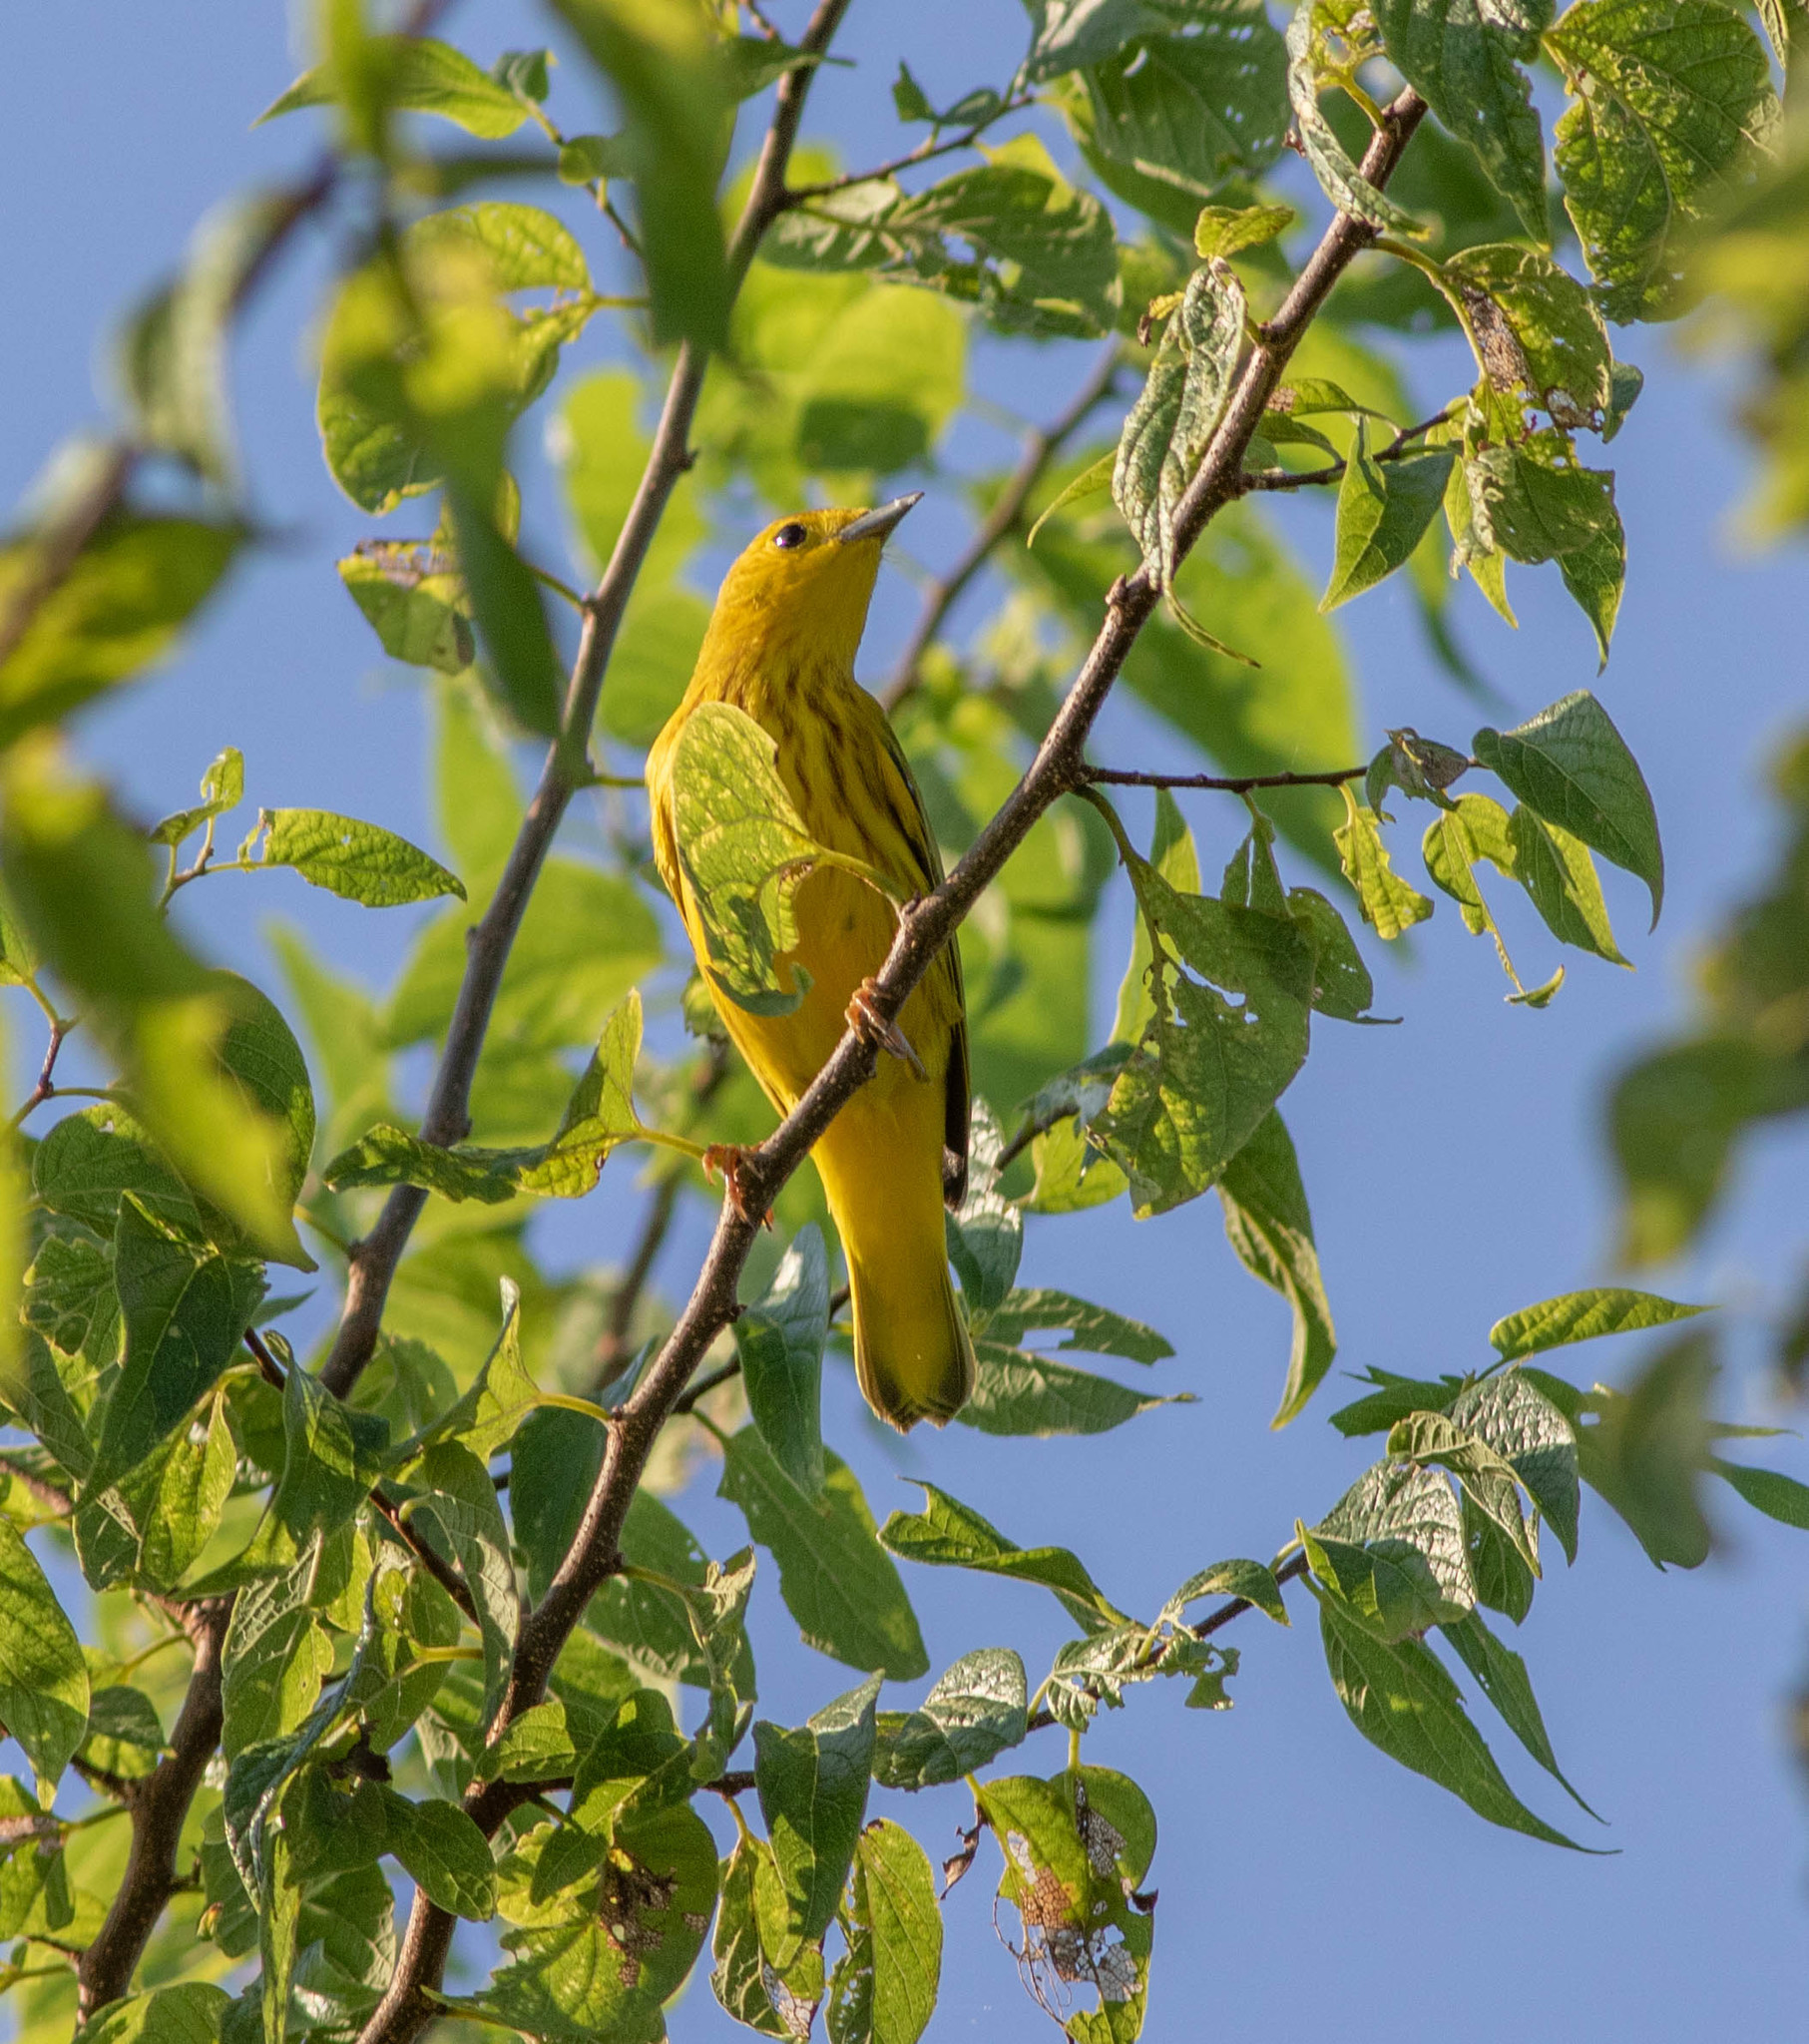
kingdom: Animalia
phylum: Chordata
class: Aves
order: Passeriformes
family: Parulidae
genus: Setophaga
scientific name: Setophaga petechia
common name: Yellow warbler
